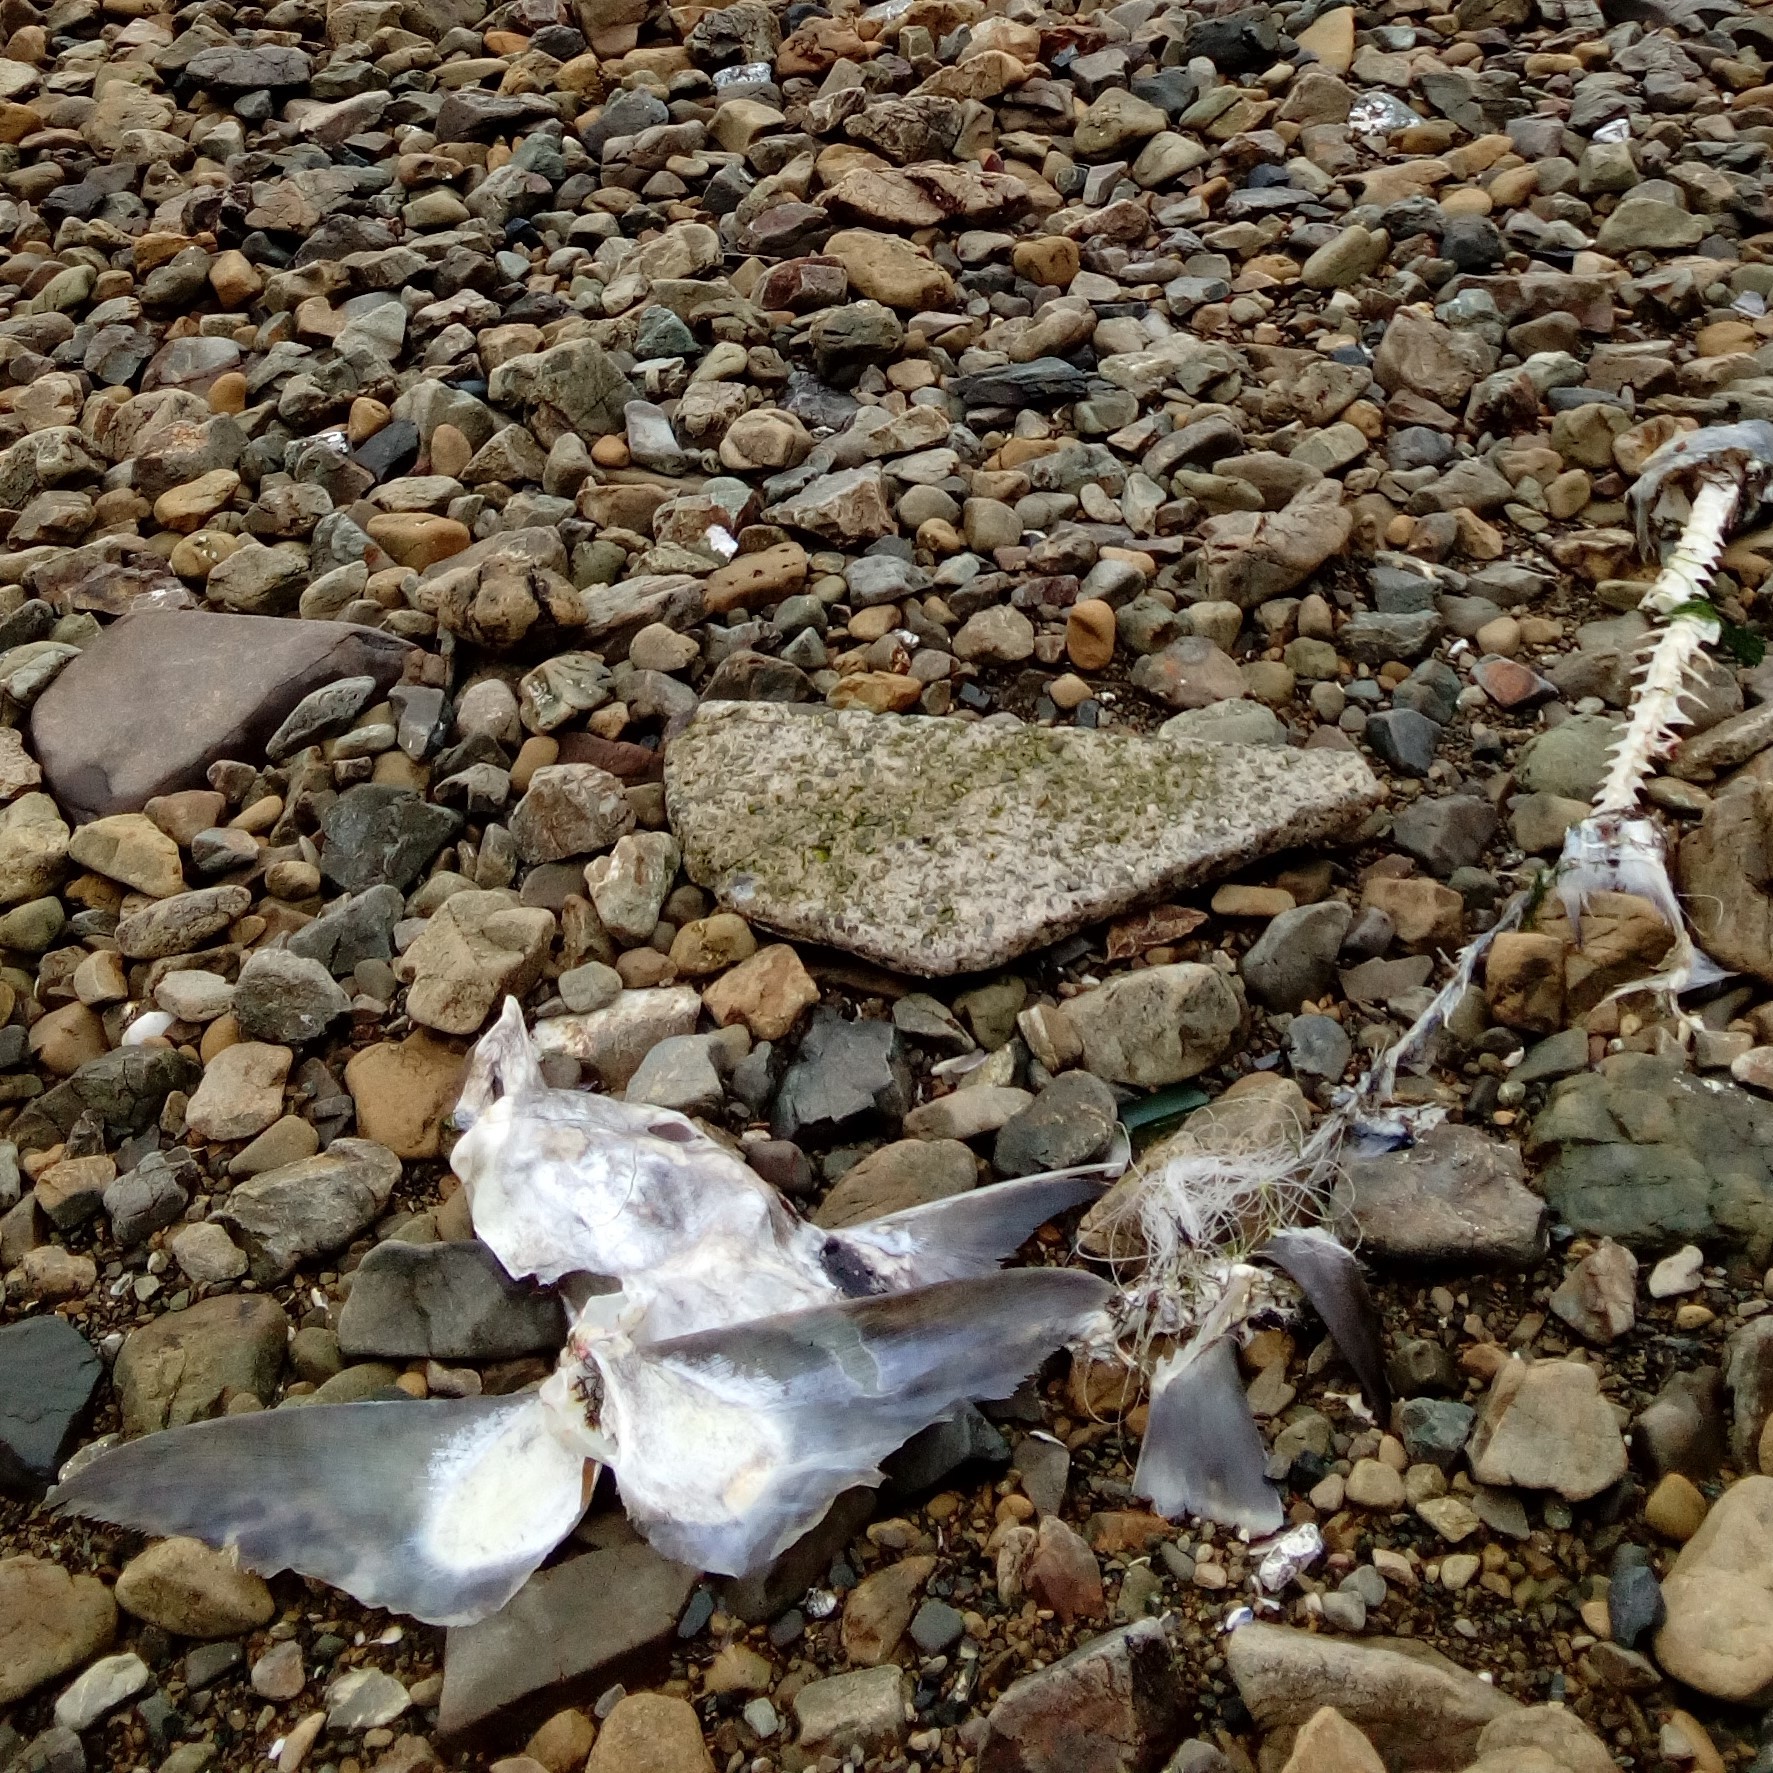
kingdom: Animalia
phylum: Chordata
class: Holocephali
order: Chimaeriformes
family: Callorhinchidae
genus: Callorhinchus
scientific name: Callorhinchus milii
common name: Elephant fish
